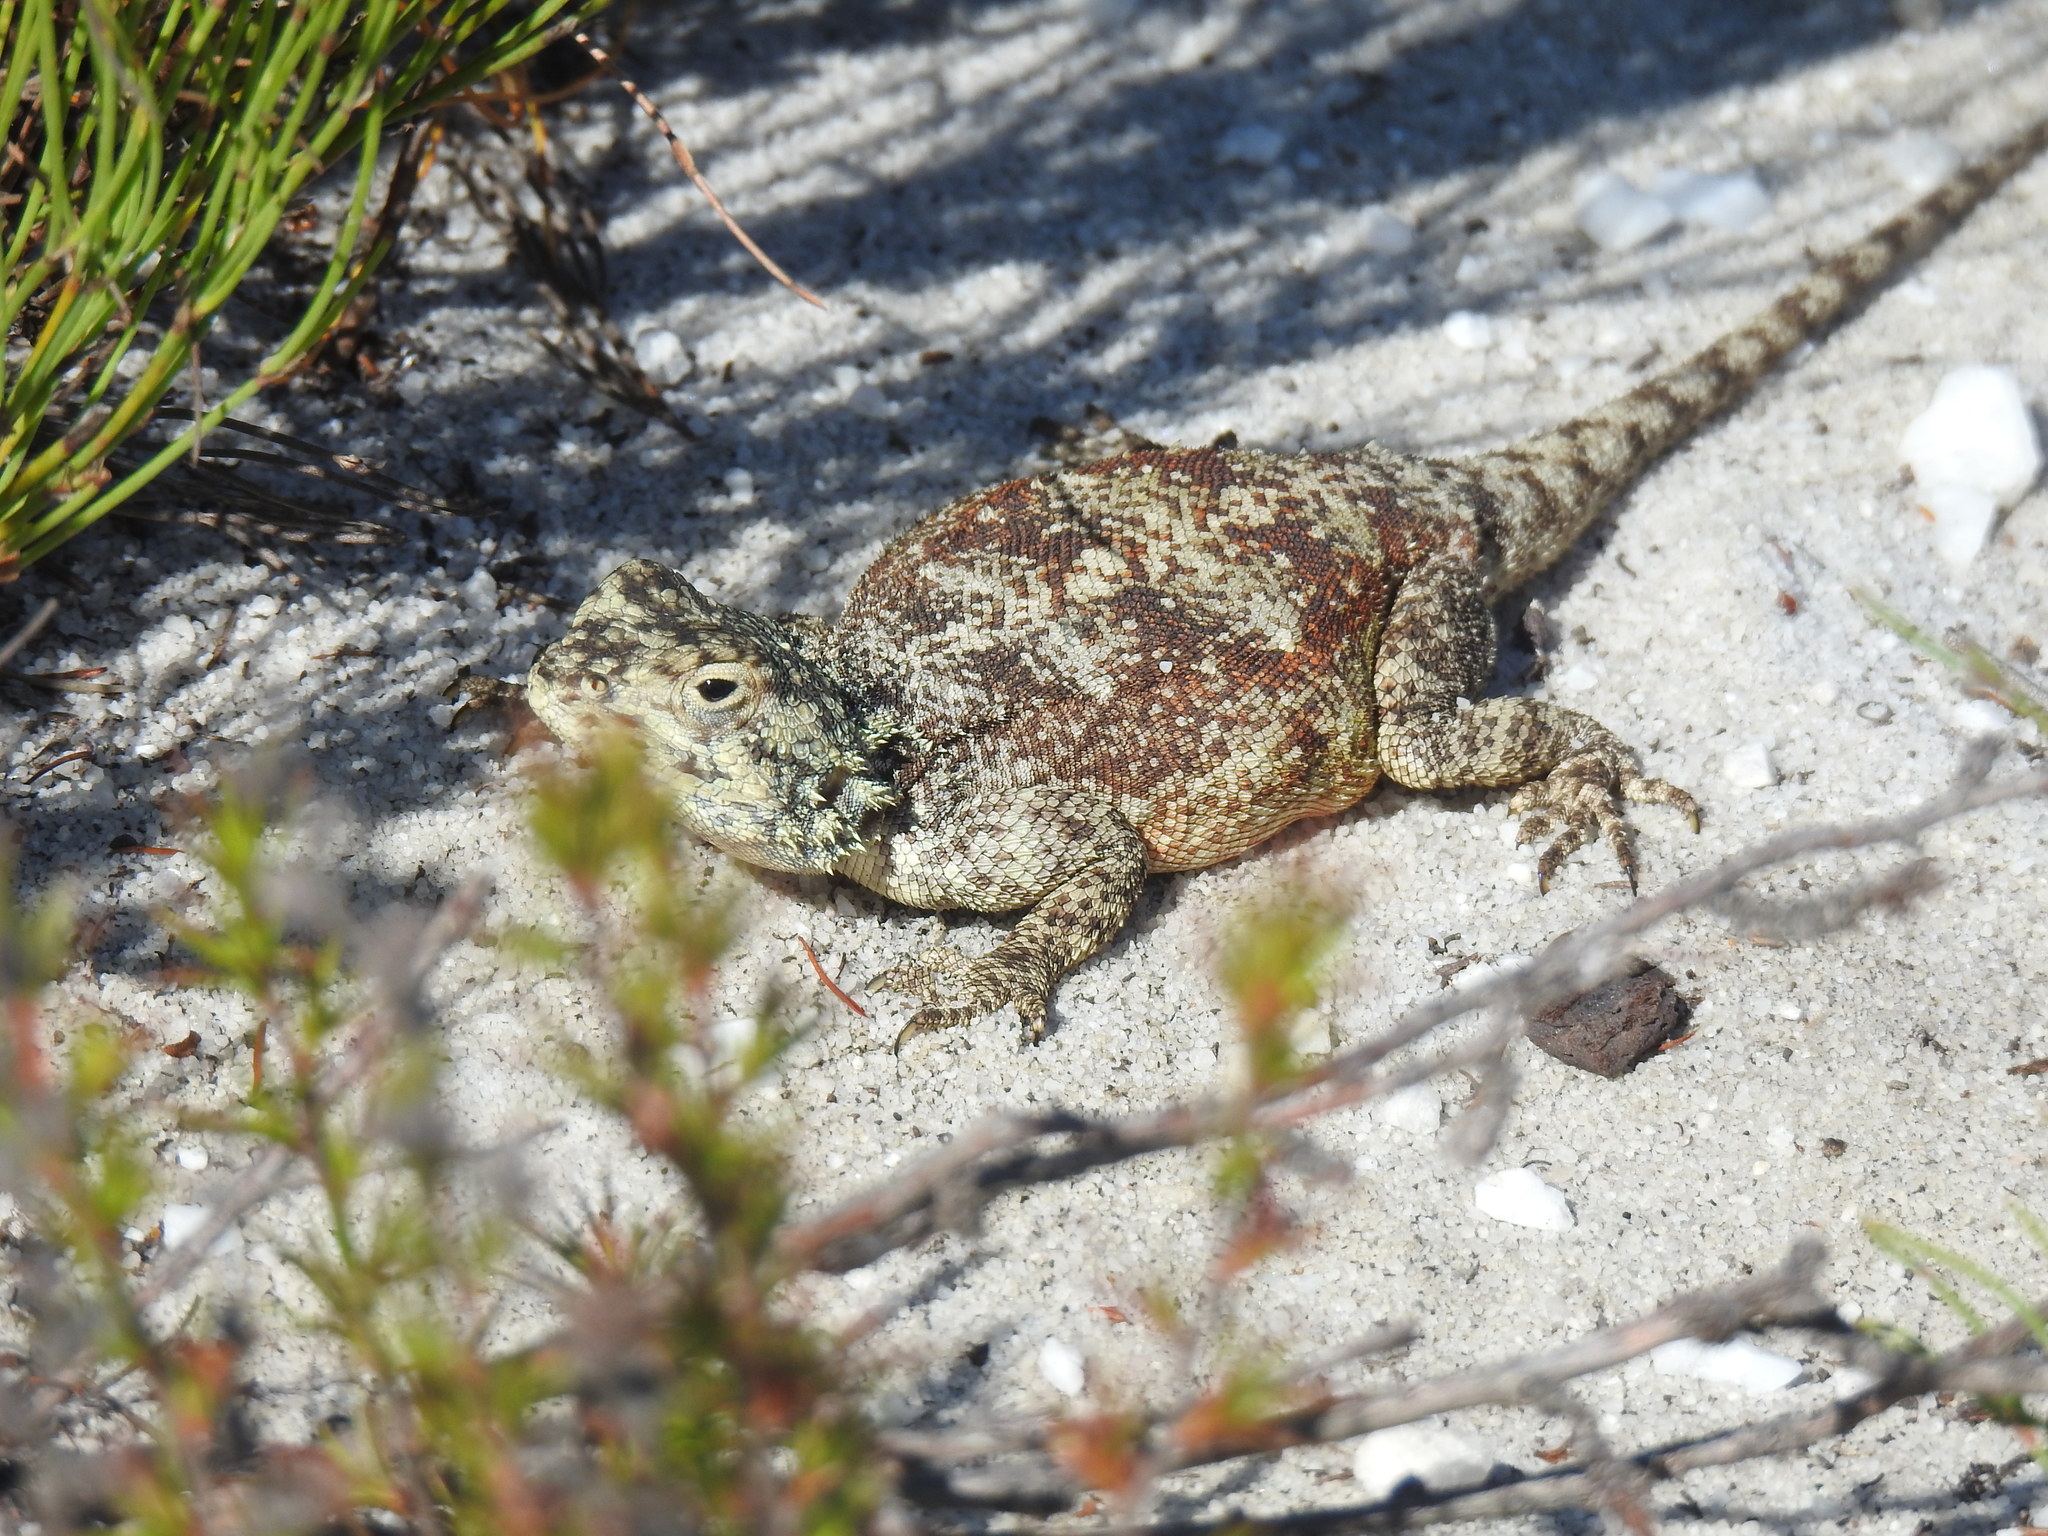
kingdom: Animalia
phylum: Chordata
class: Squamata
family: Agamidae
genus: Agama
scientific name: Agama atra
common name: Southern african rock agama
